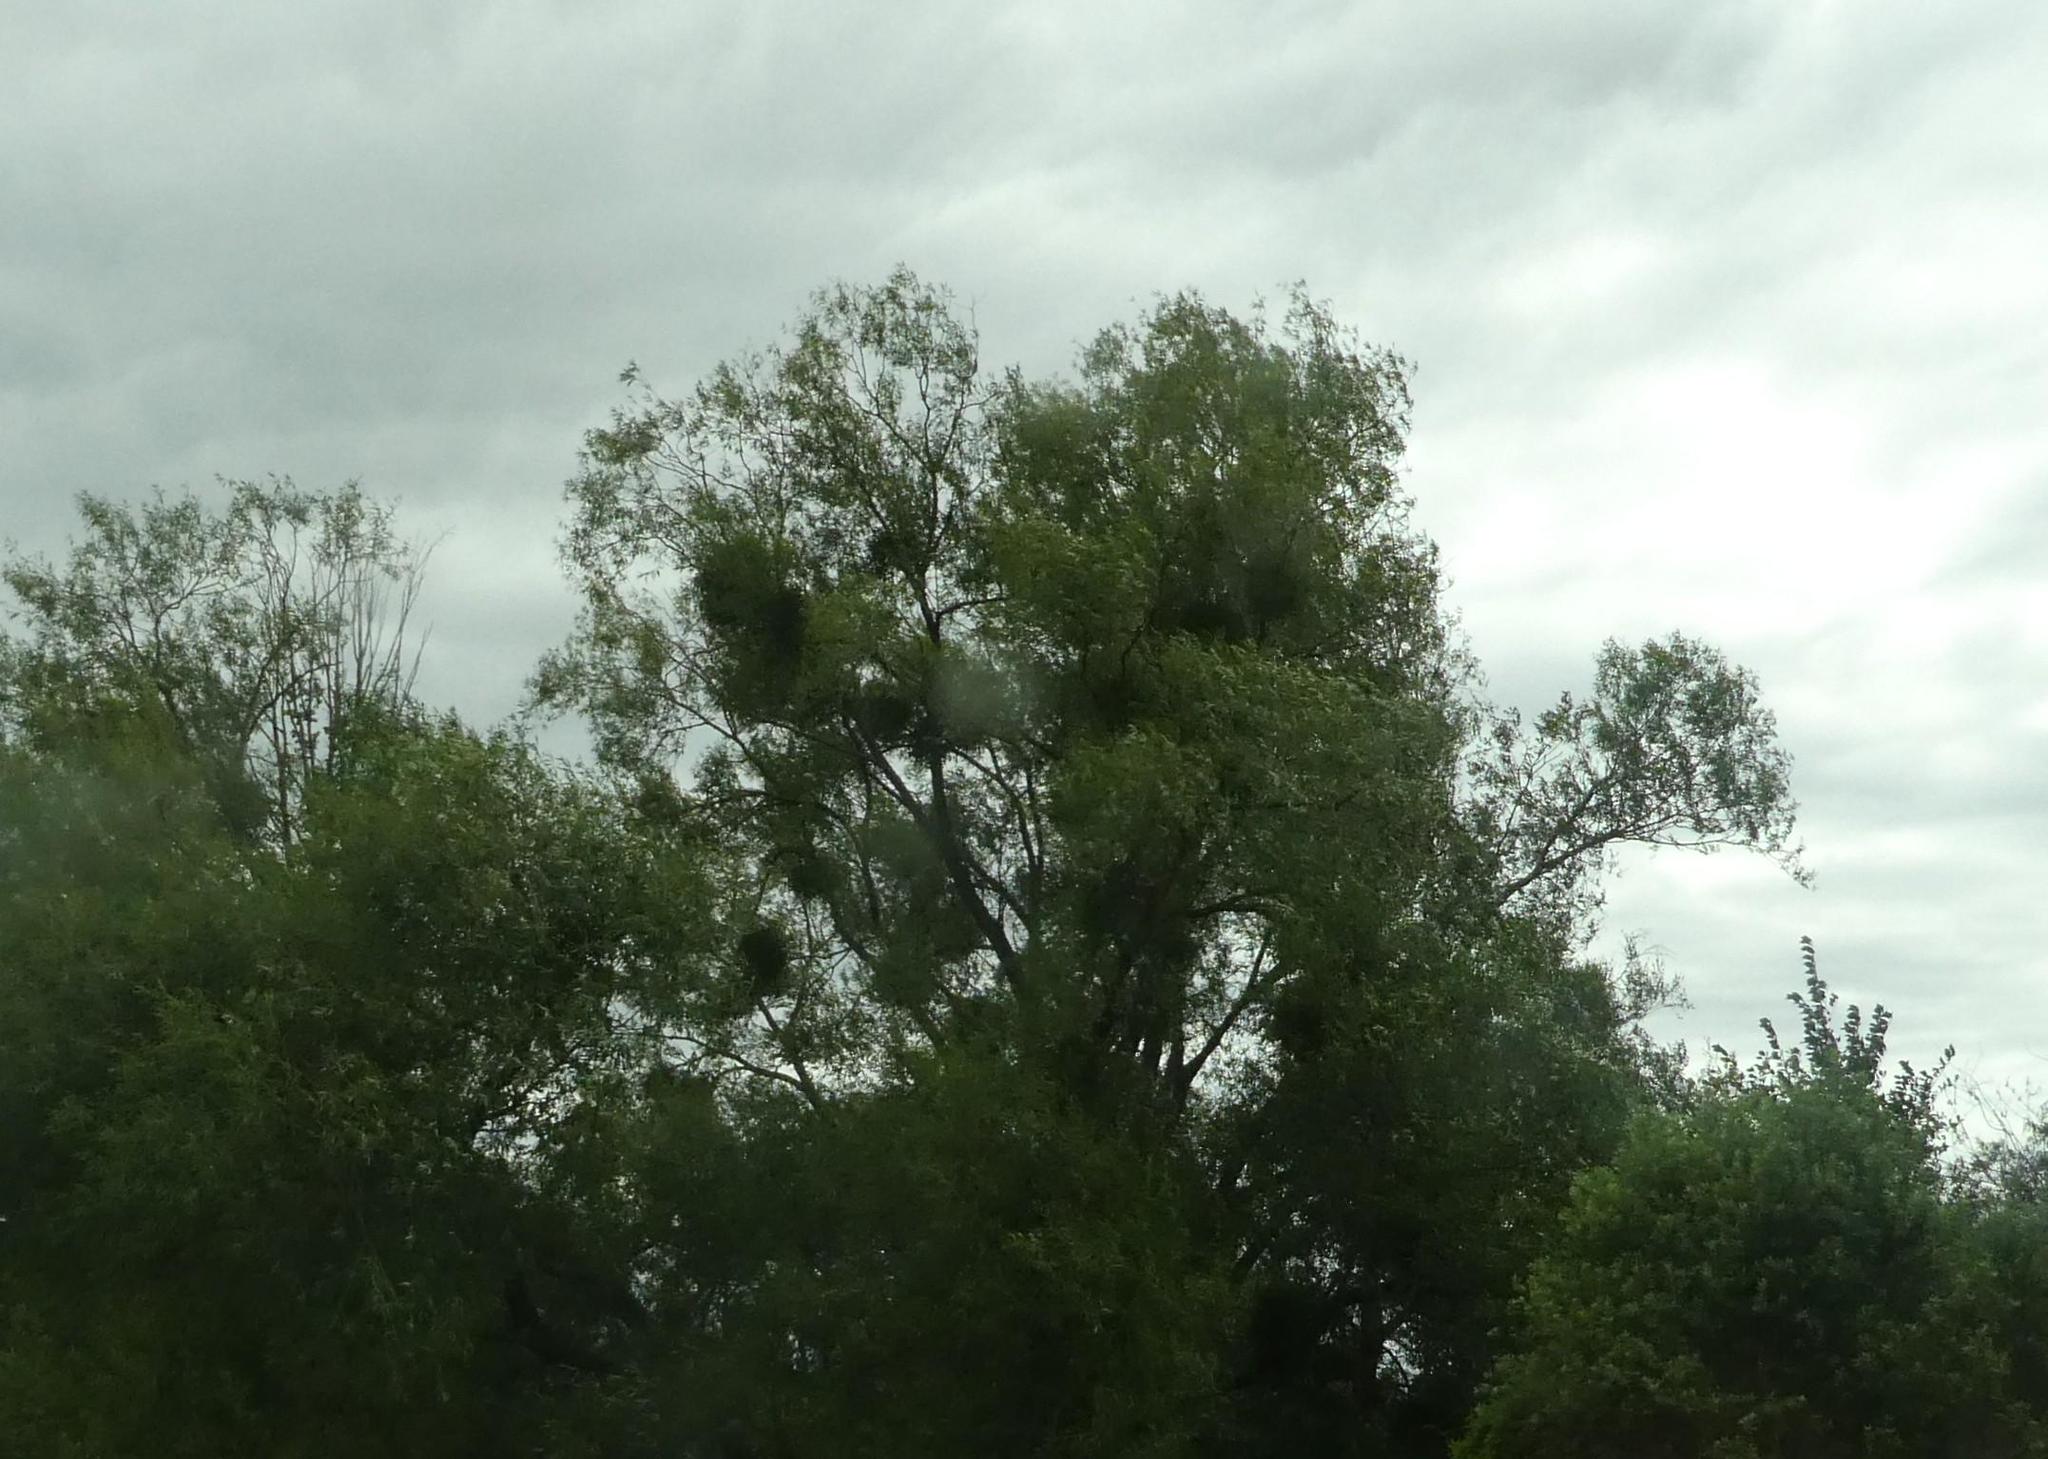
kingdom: Plantae
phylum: Tracheophyta
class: Magnoliopsida
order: Santalales
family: Viscaceae
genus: Viscum
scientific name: Viscum album
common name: Mistletoe
